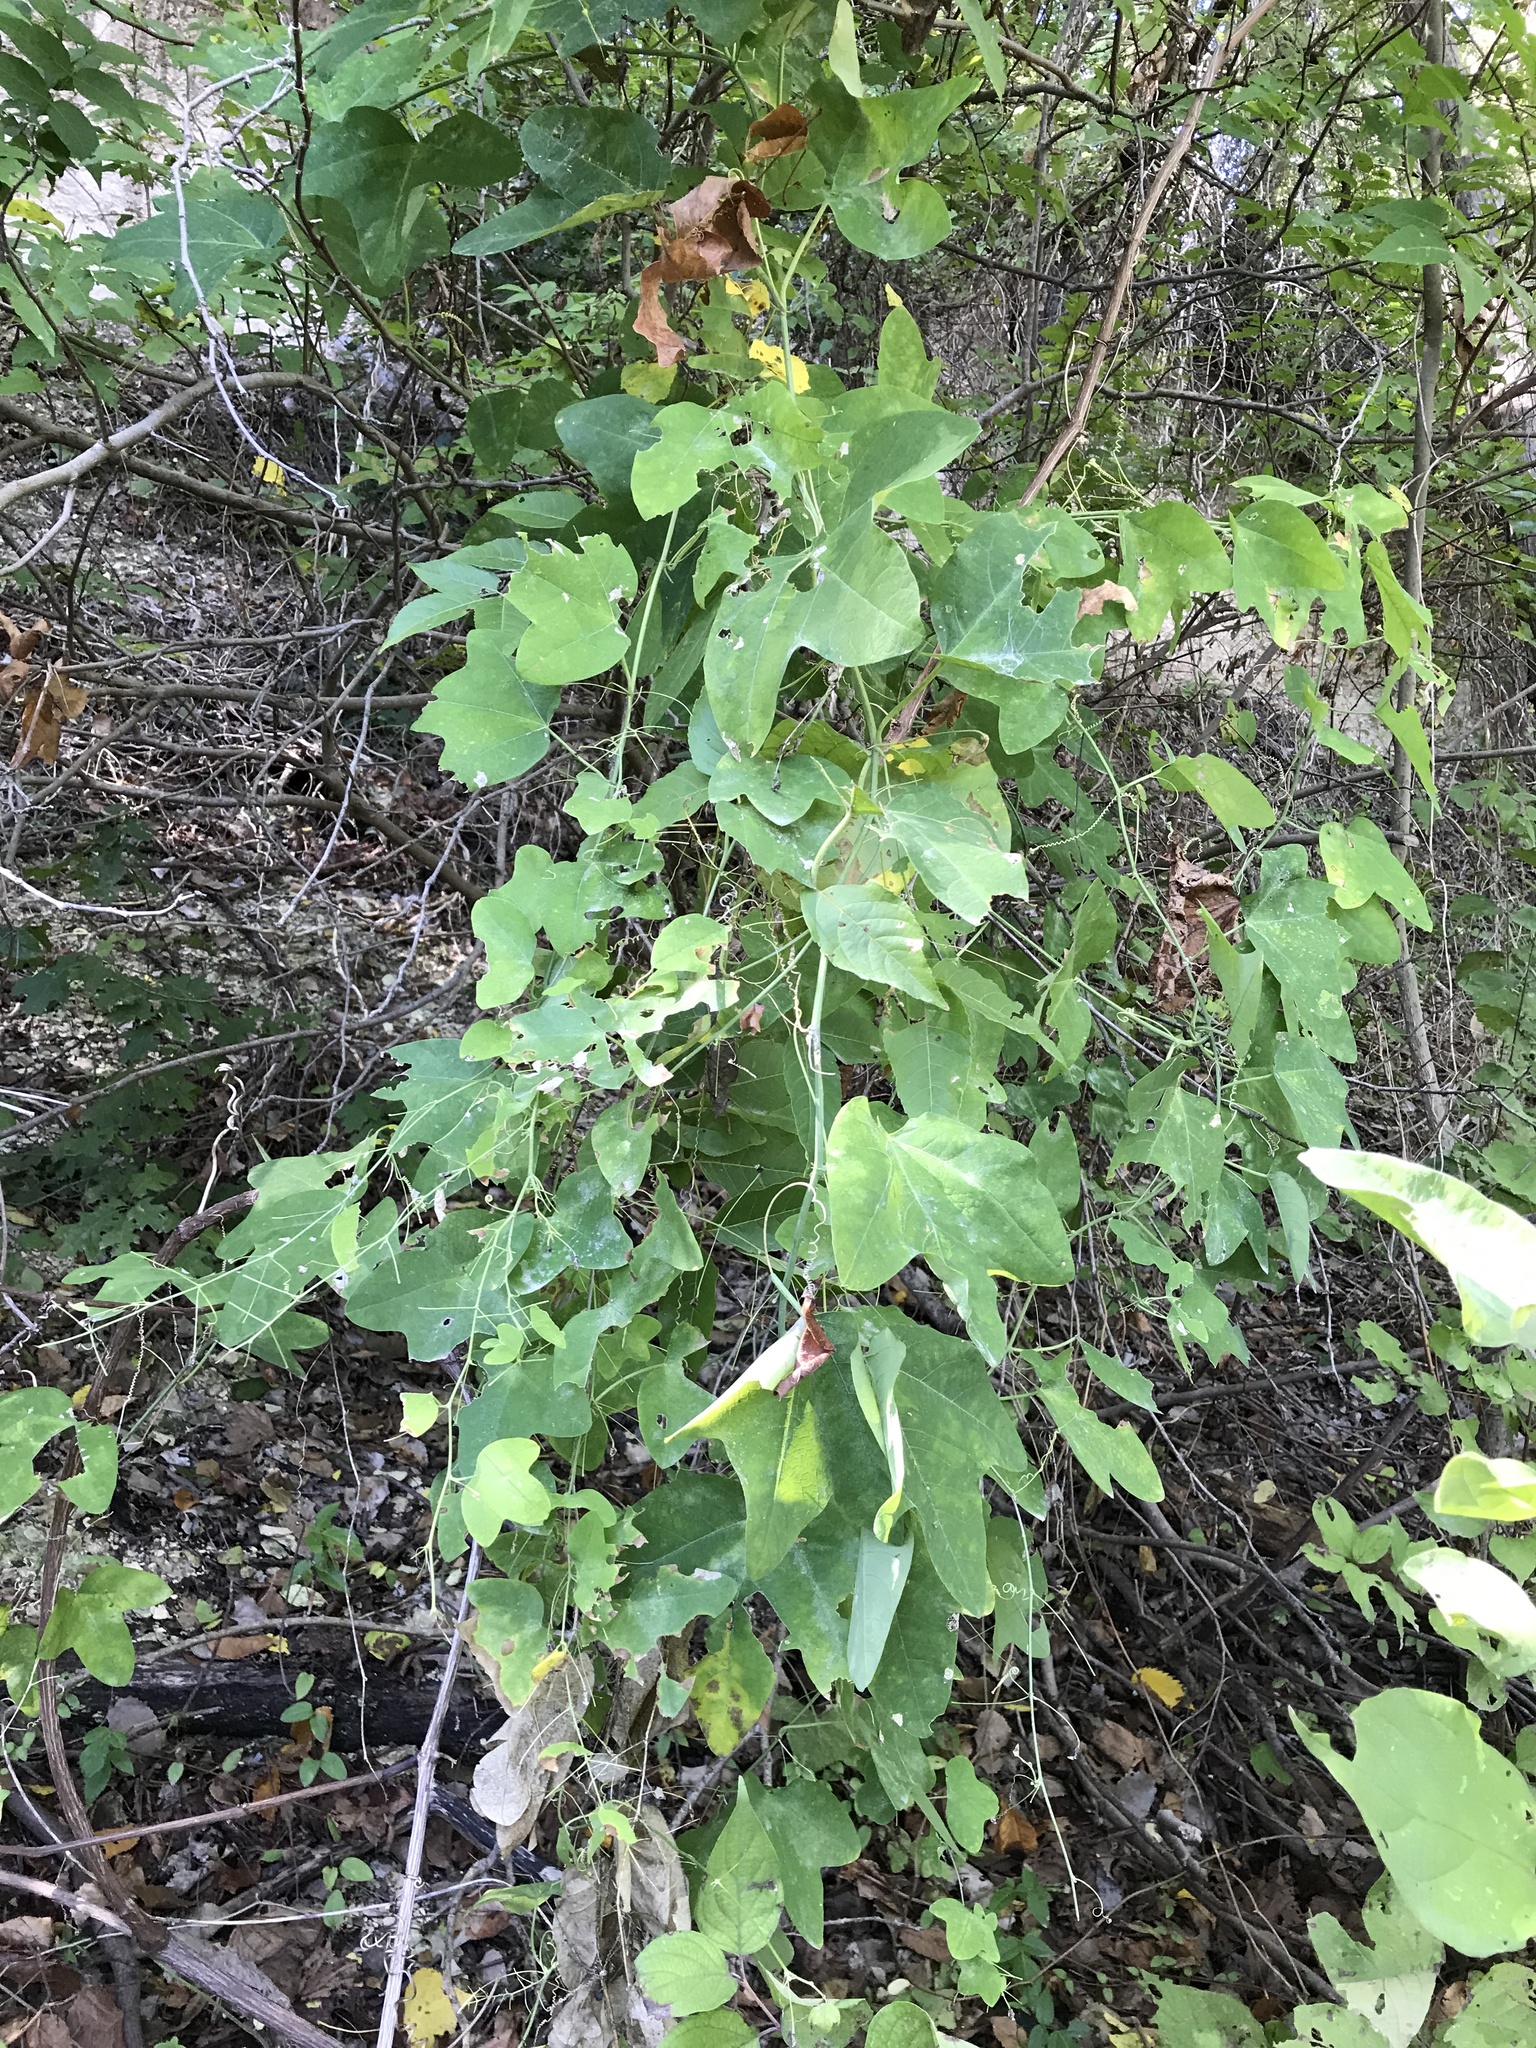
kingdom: Plantae
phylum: Tracheophyta
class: Magnoliopsida
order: Malpighiales
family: Passifloraceae
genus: Passiflora
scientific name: Passiflora lutea
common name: Yellow passionflower
